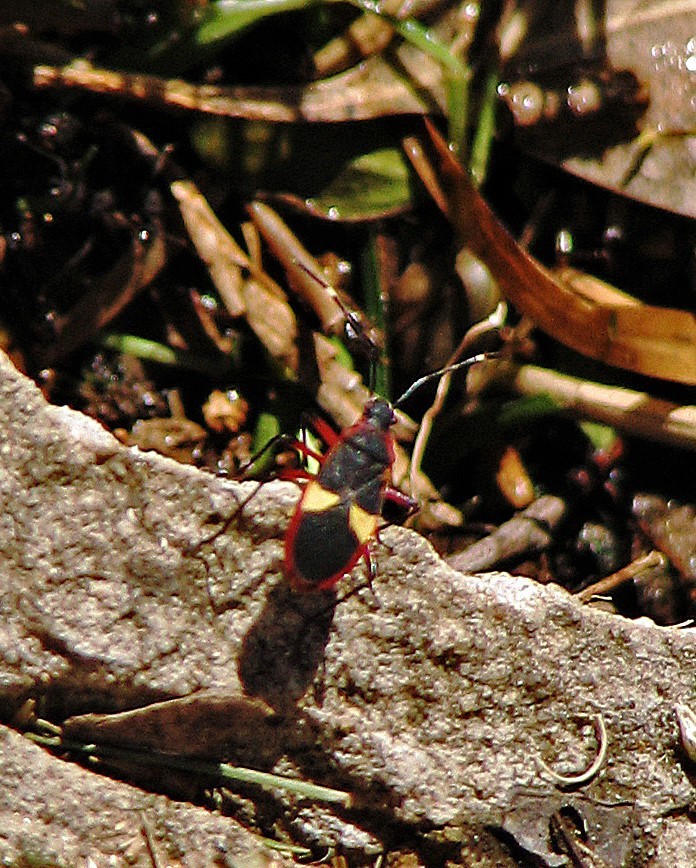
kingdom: Animalia
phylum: Arthropoda
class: Insecta
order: Hemiptera
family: Pyrrhocoridae
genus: Dysdercus
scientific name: Dysdercus albofasciatus
